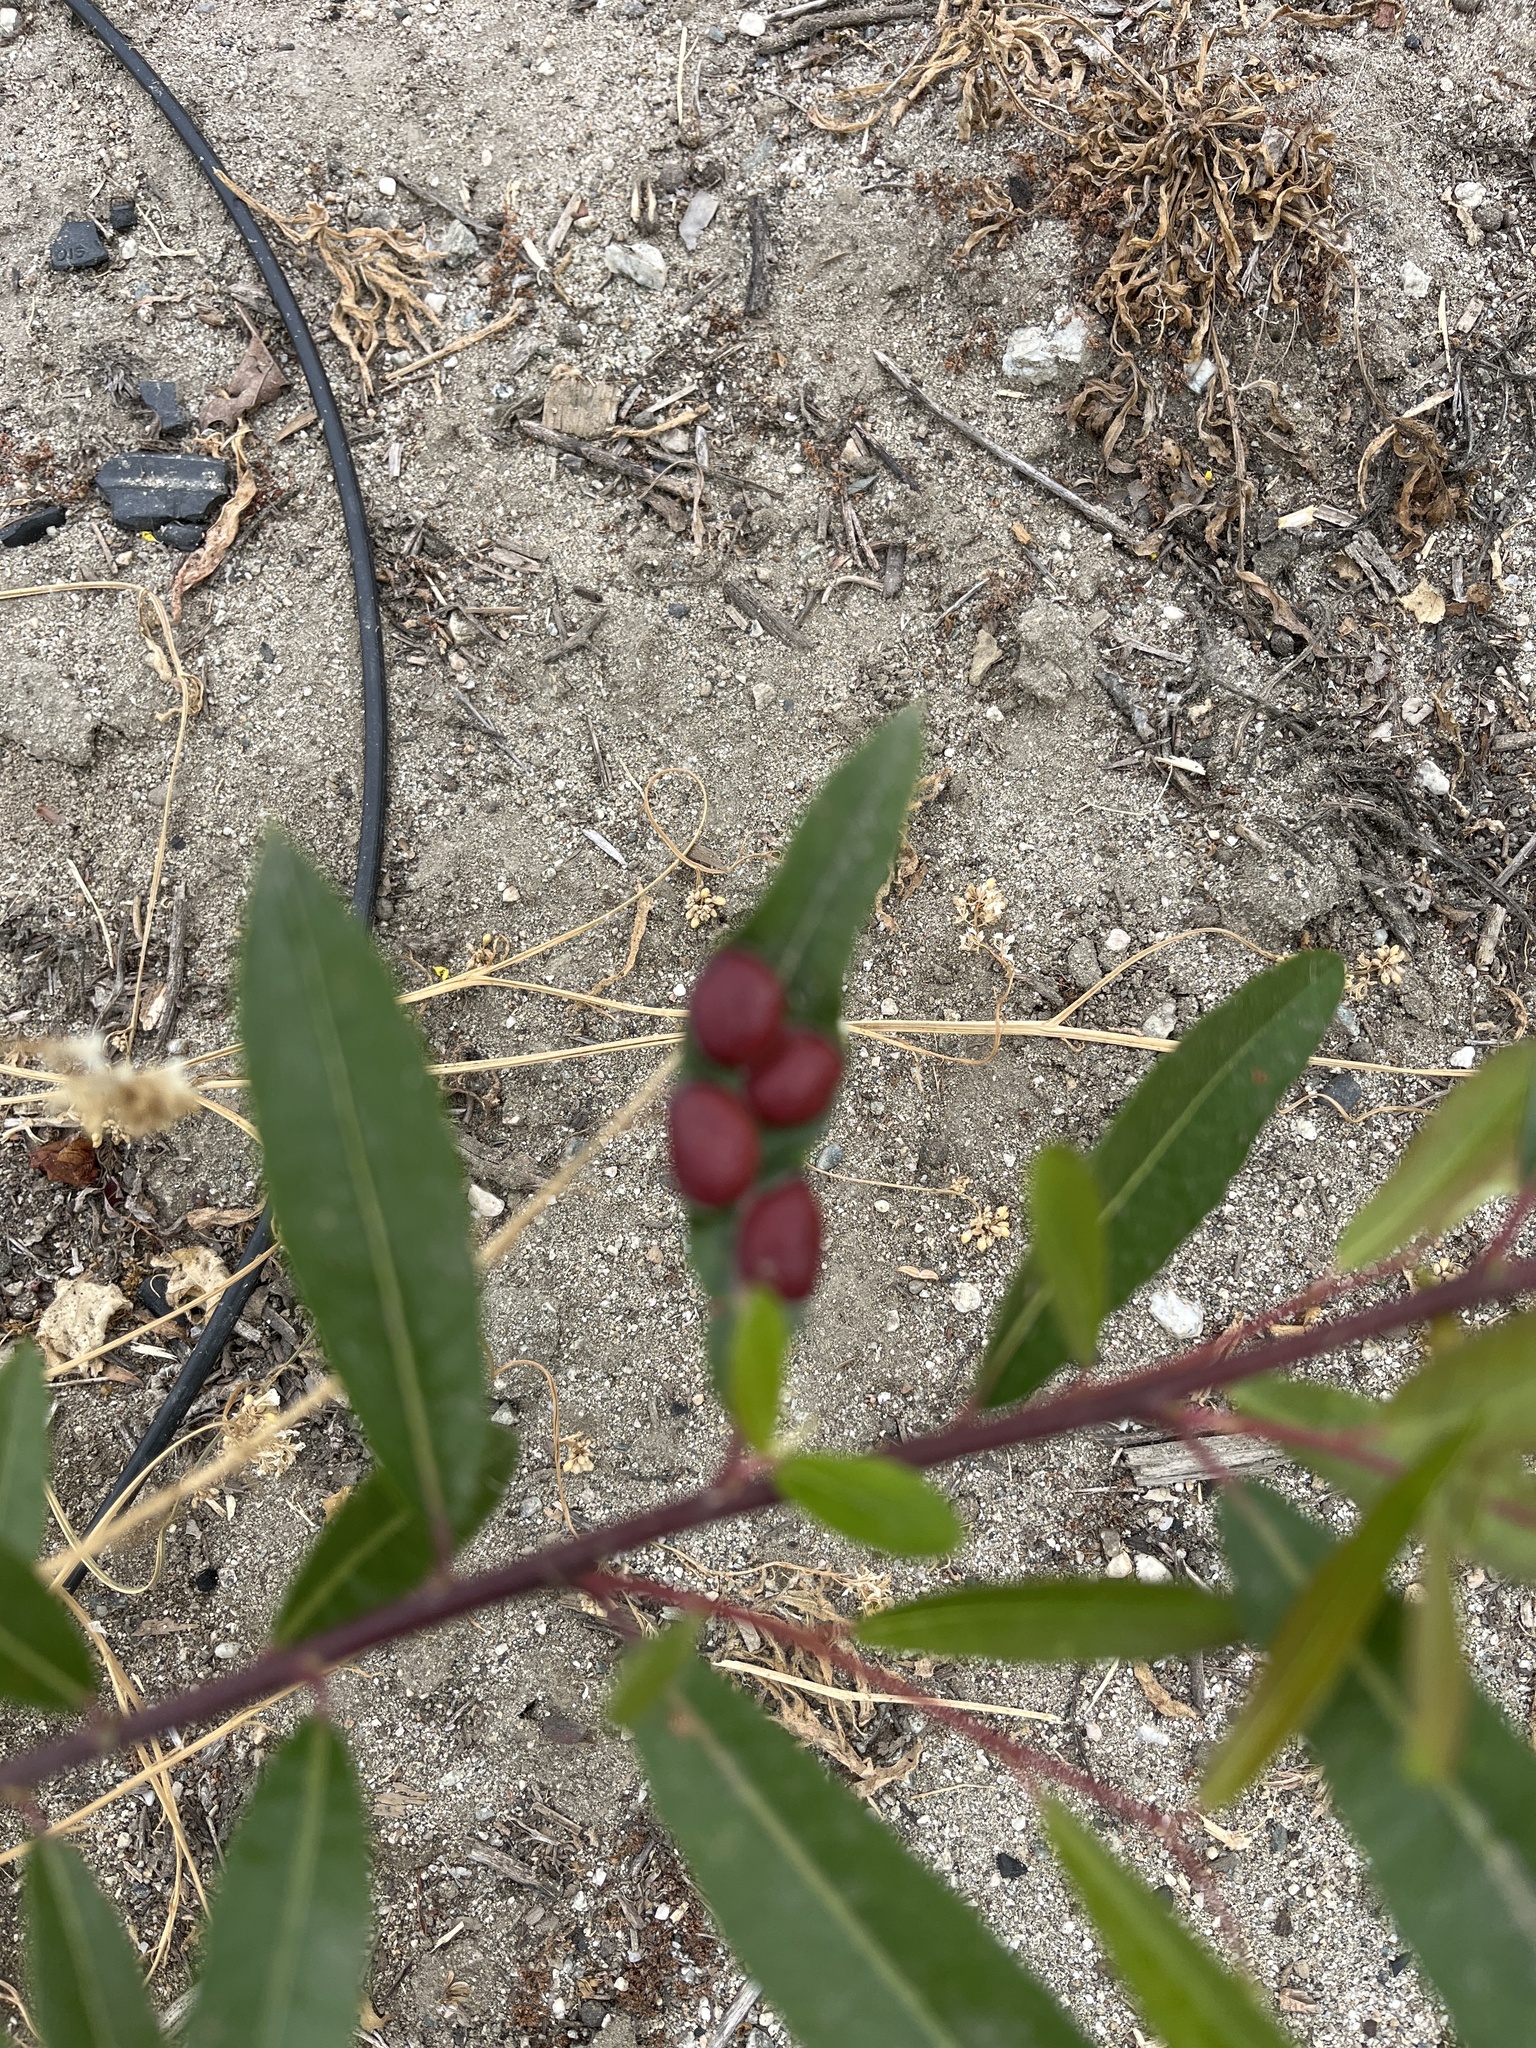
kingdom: Animalia
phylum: Arthropoda
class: Insecta
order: Hymenoptera
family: Tenthredinidae
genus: Euura
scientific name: Euura
